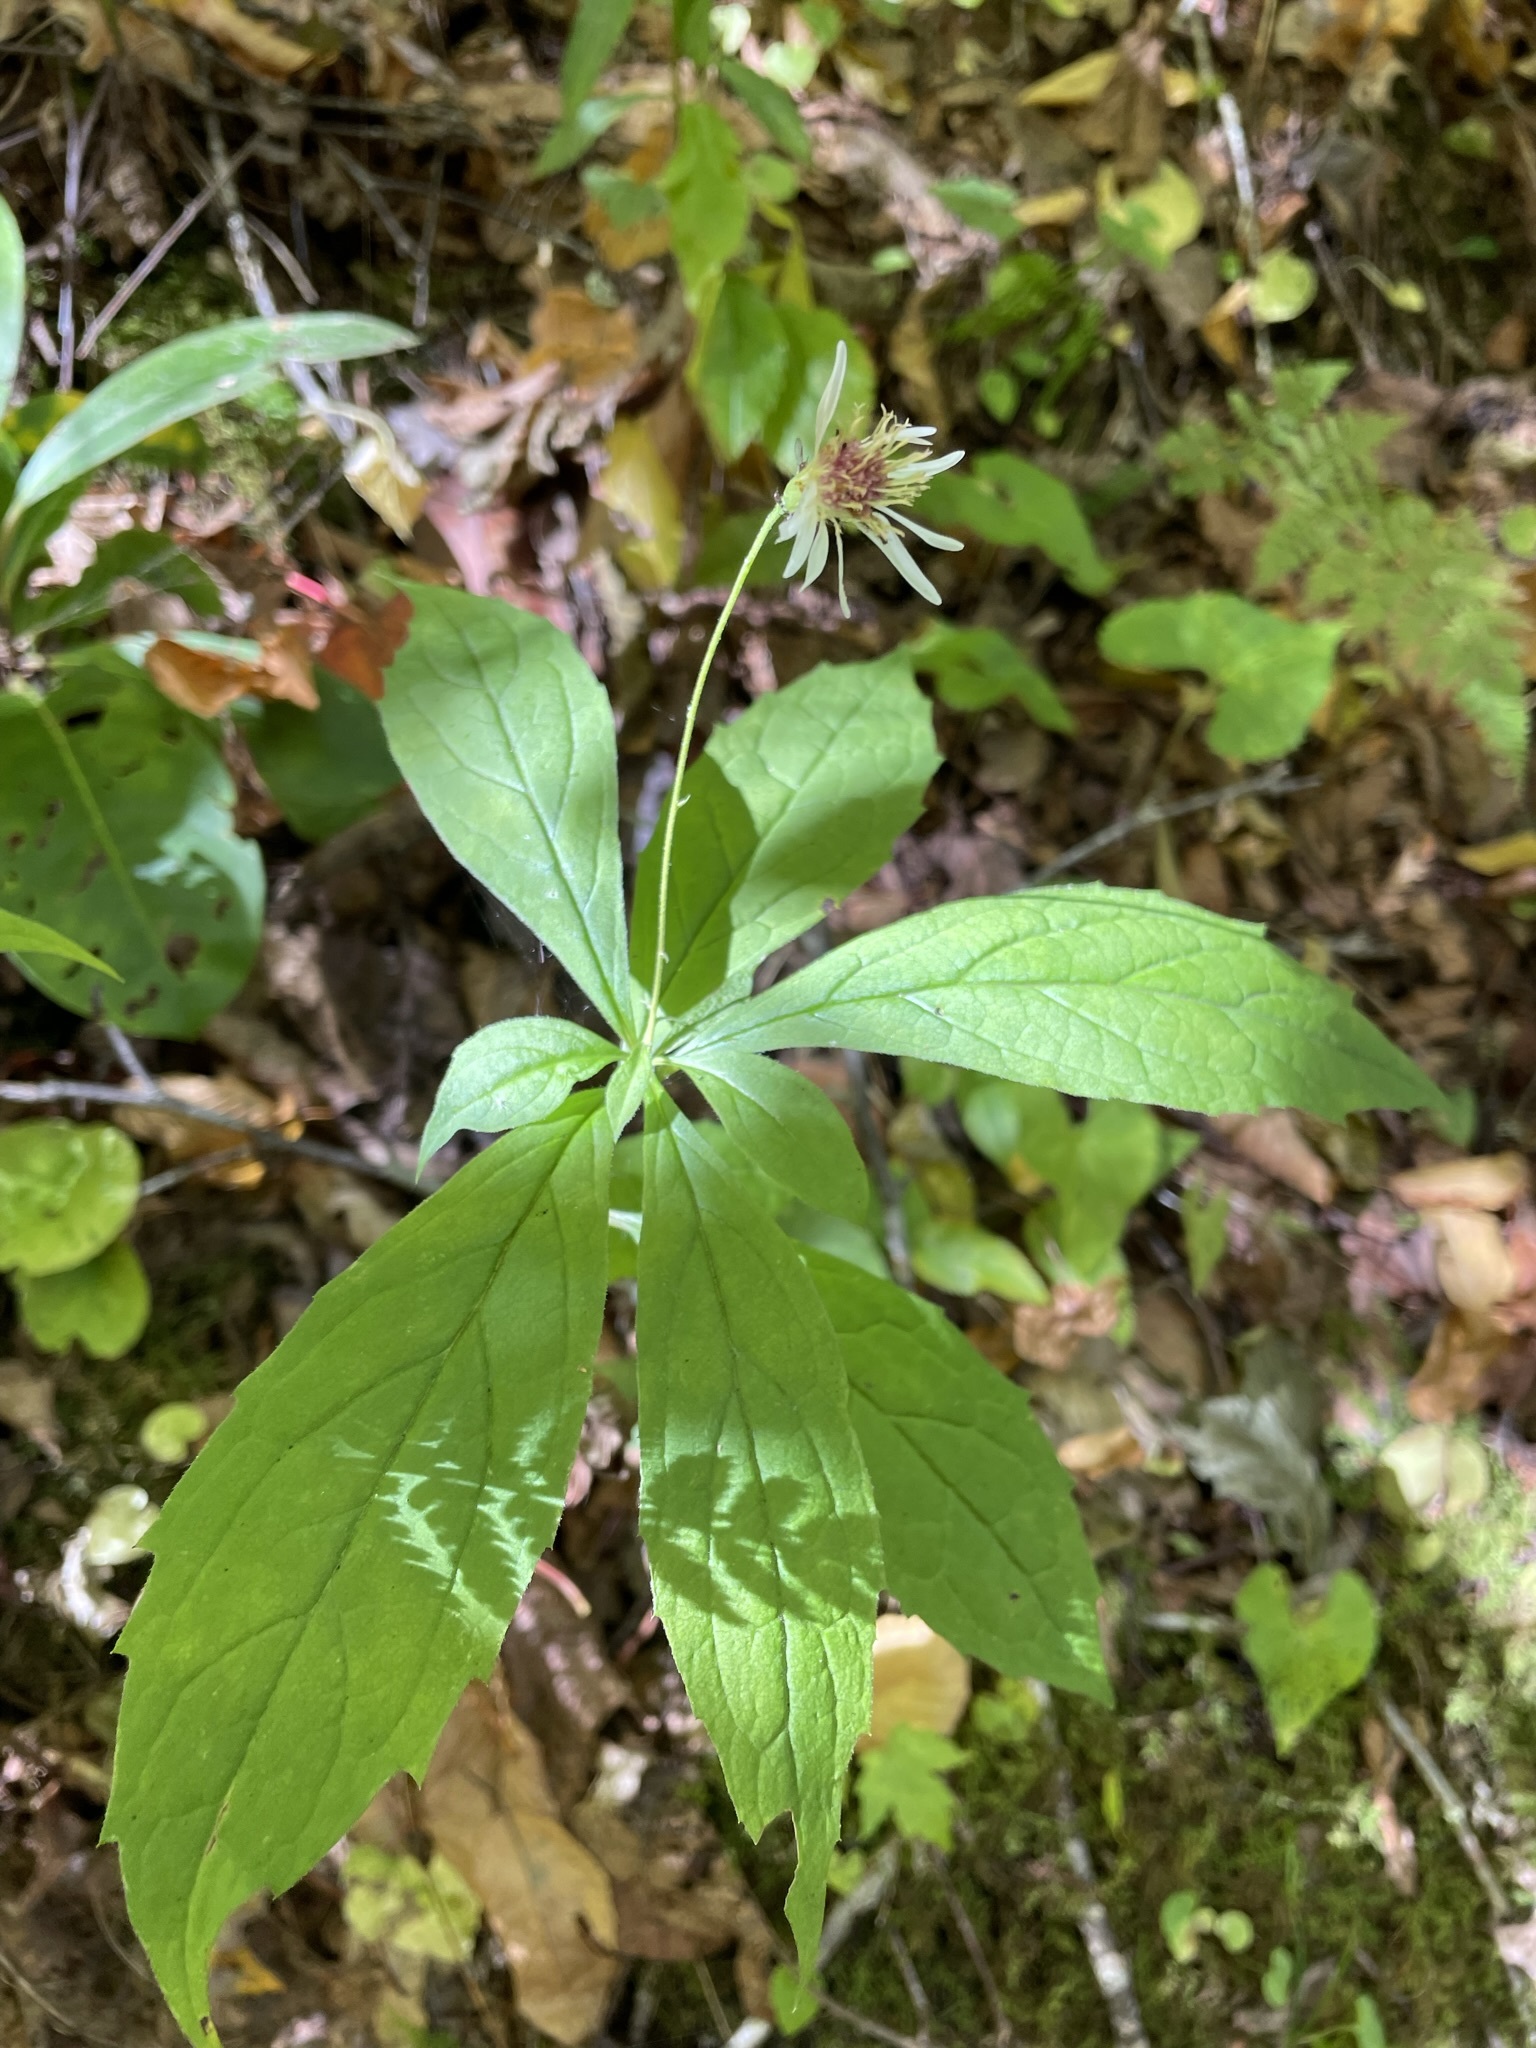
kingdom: Plantae
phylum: Tracheophyta
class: Magnoliopsida
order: Asterales
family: Asteraceae
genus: Oclemena
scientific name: Oclemena acuminata
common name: Mountain aster
